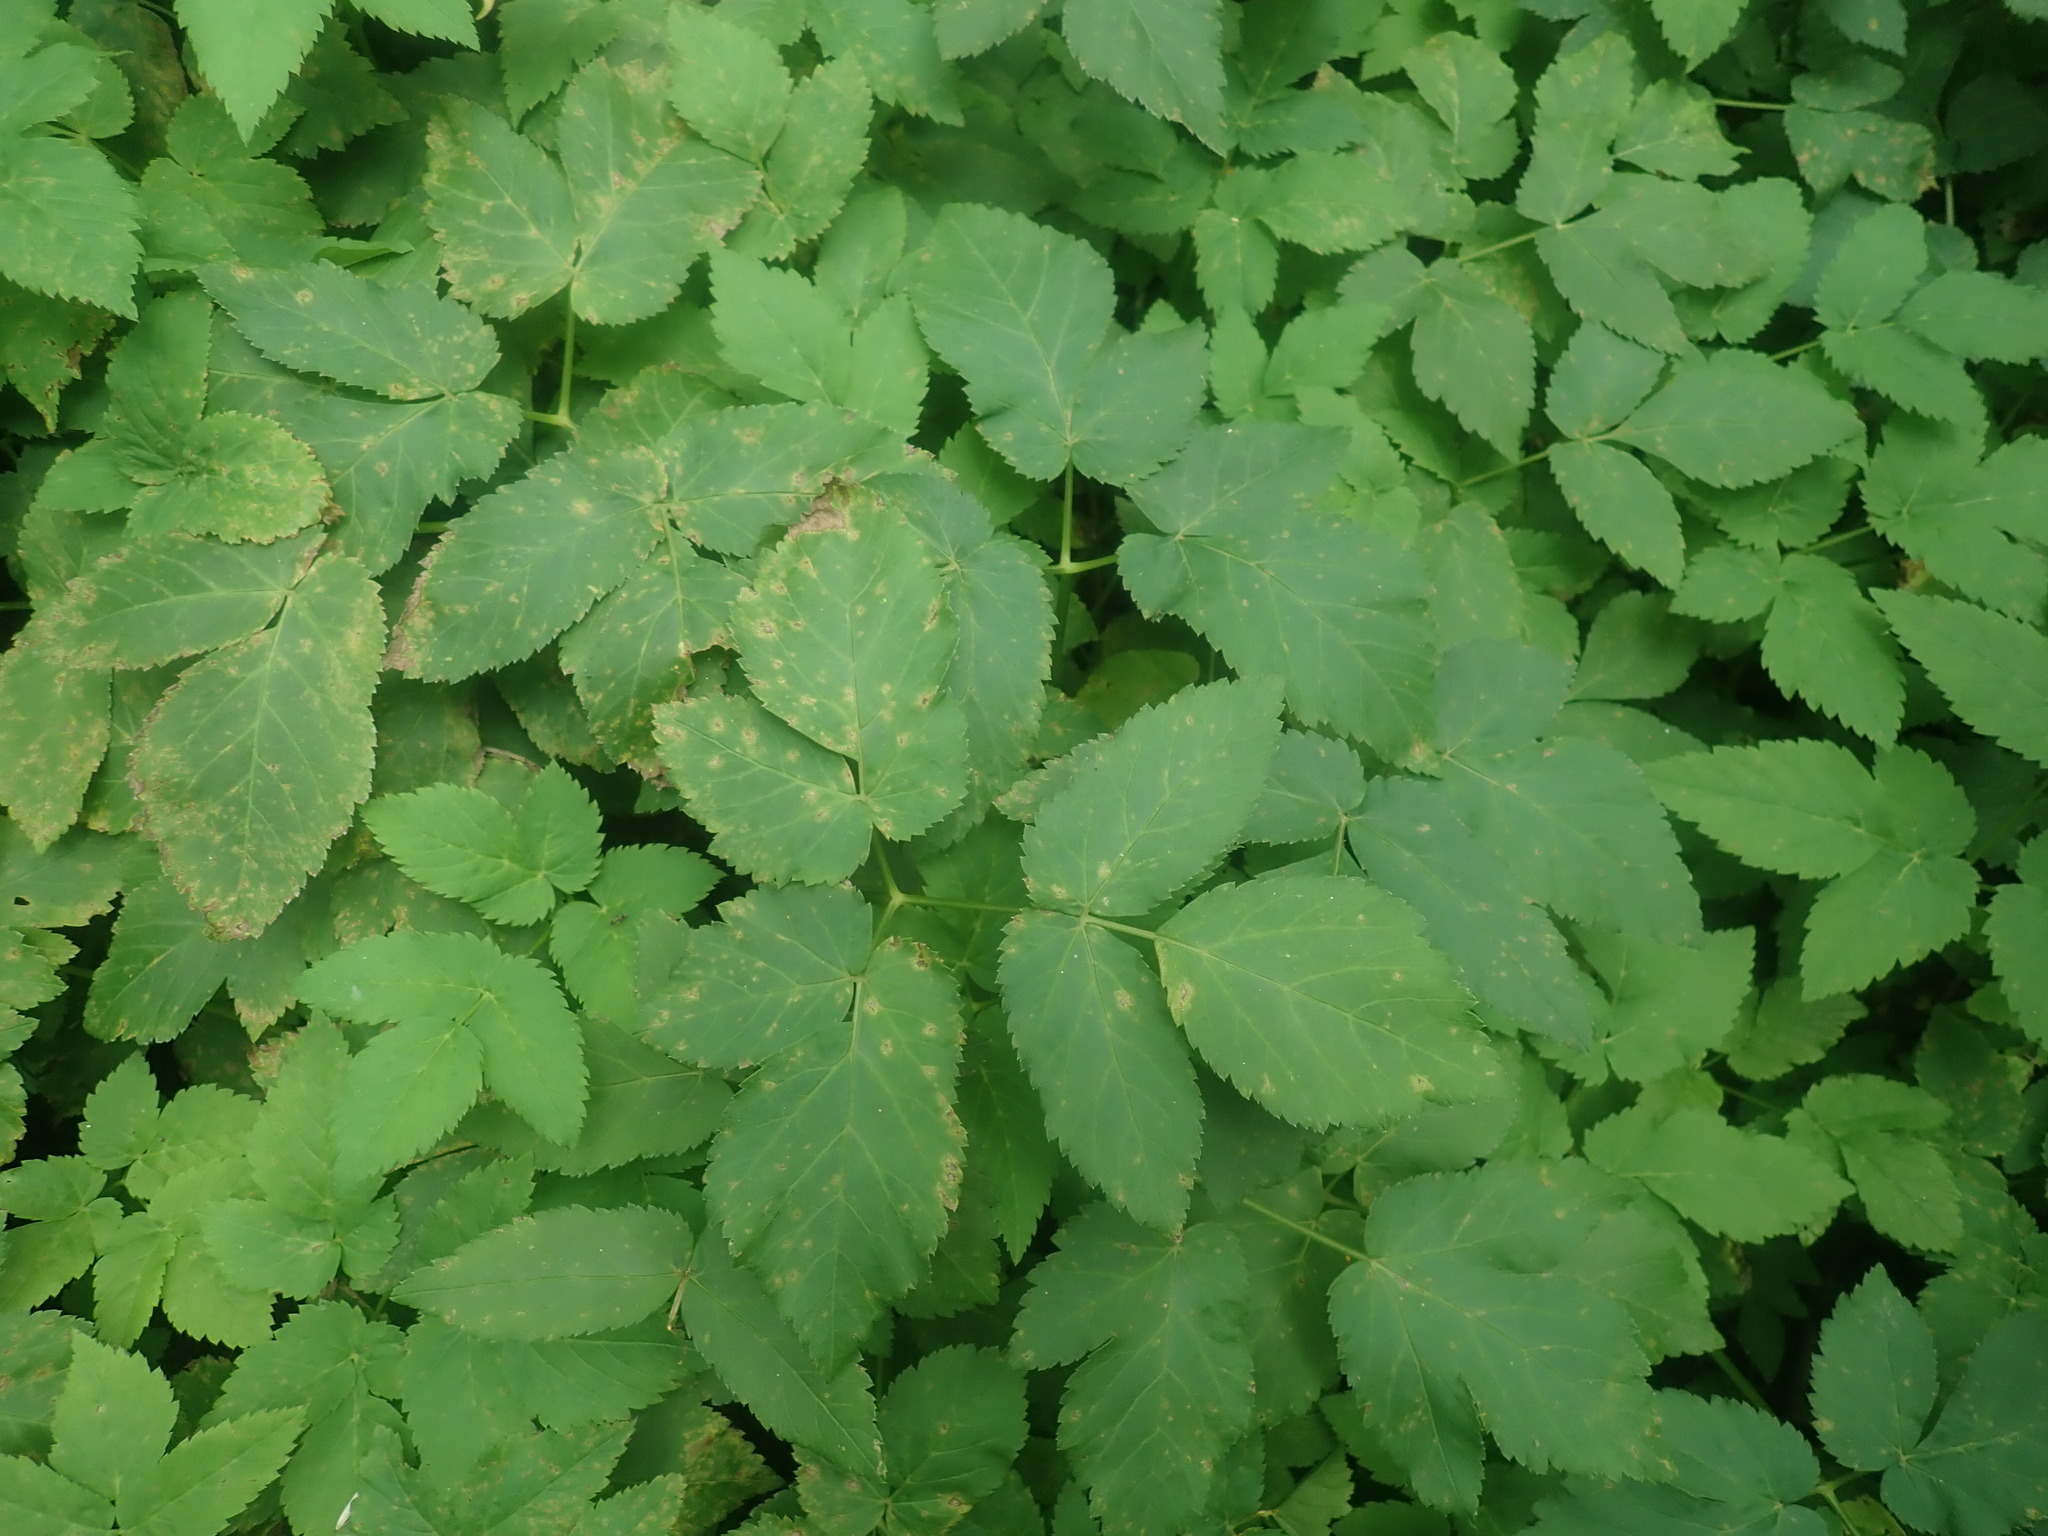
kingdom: Plantae
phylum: Tracheophyta
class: Magnoliopsida
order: Apiales
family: Apiaceae
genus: Aegopodium
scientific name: Aegopodium podagraria
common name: Ground-elder
